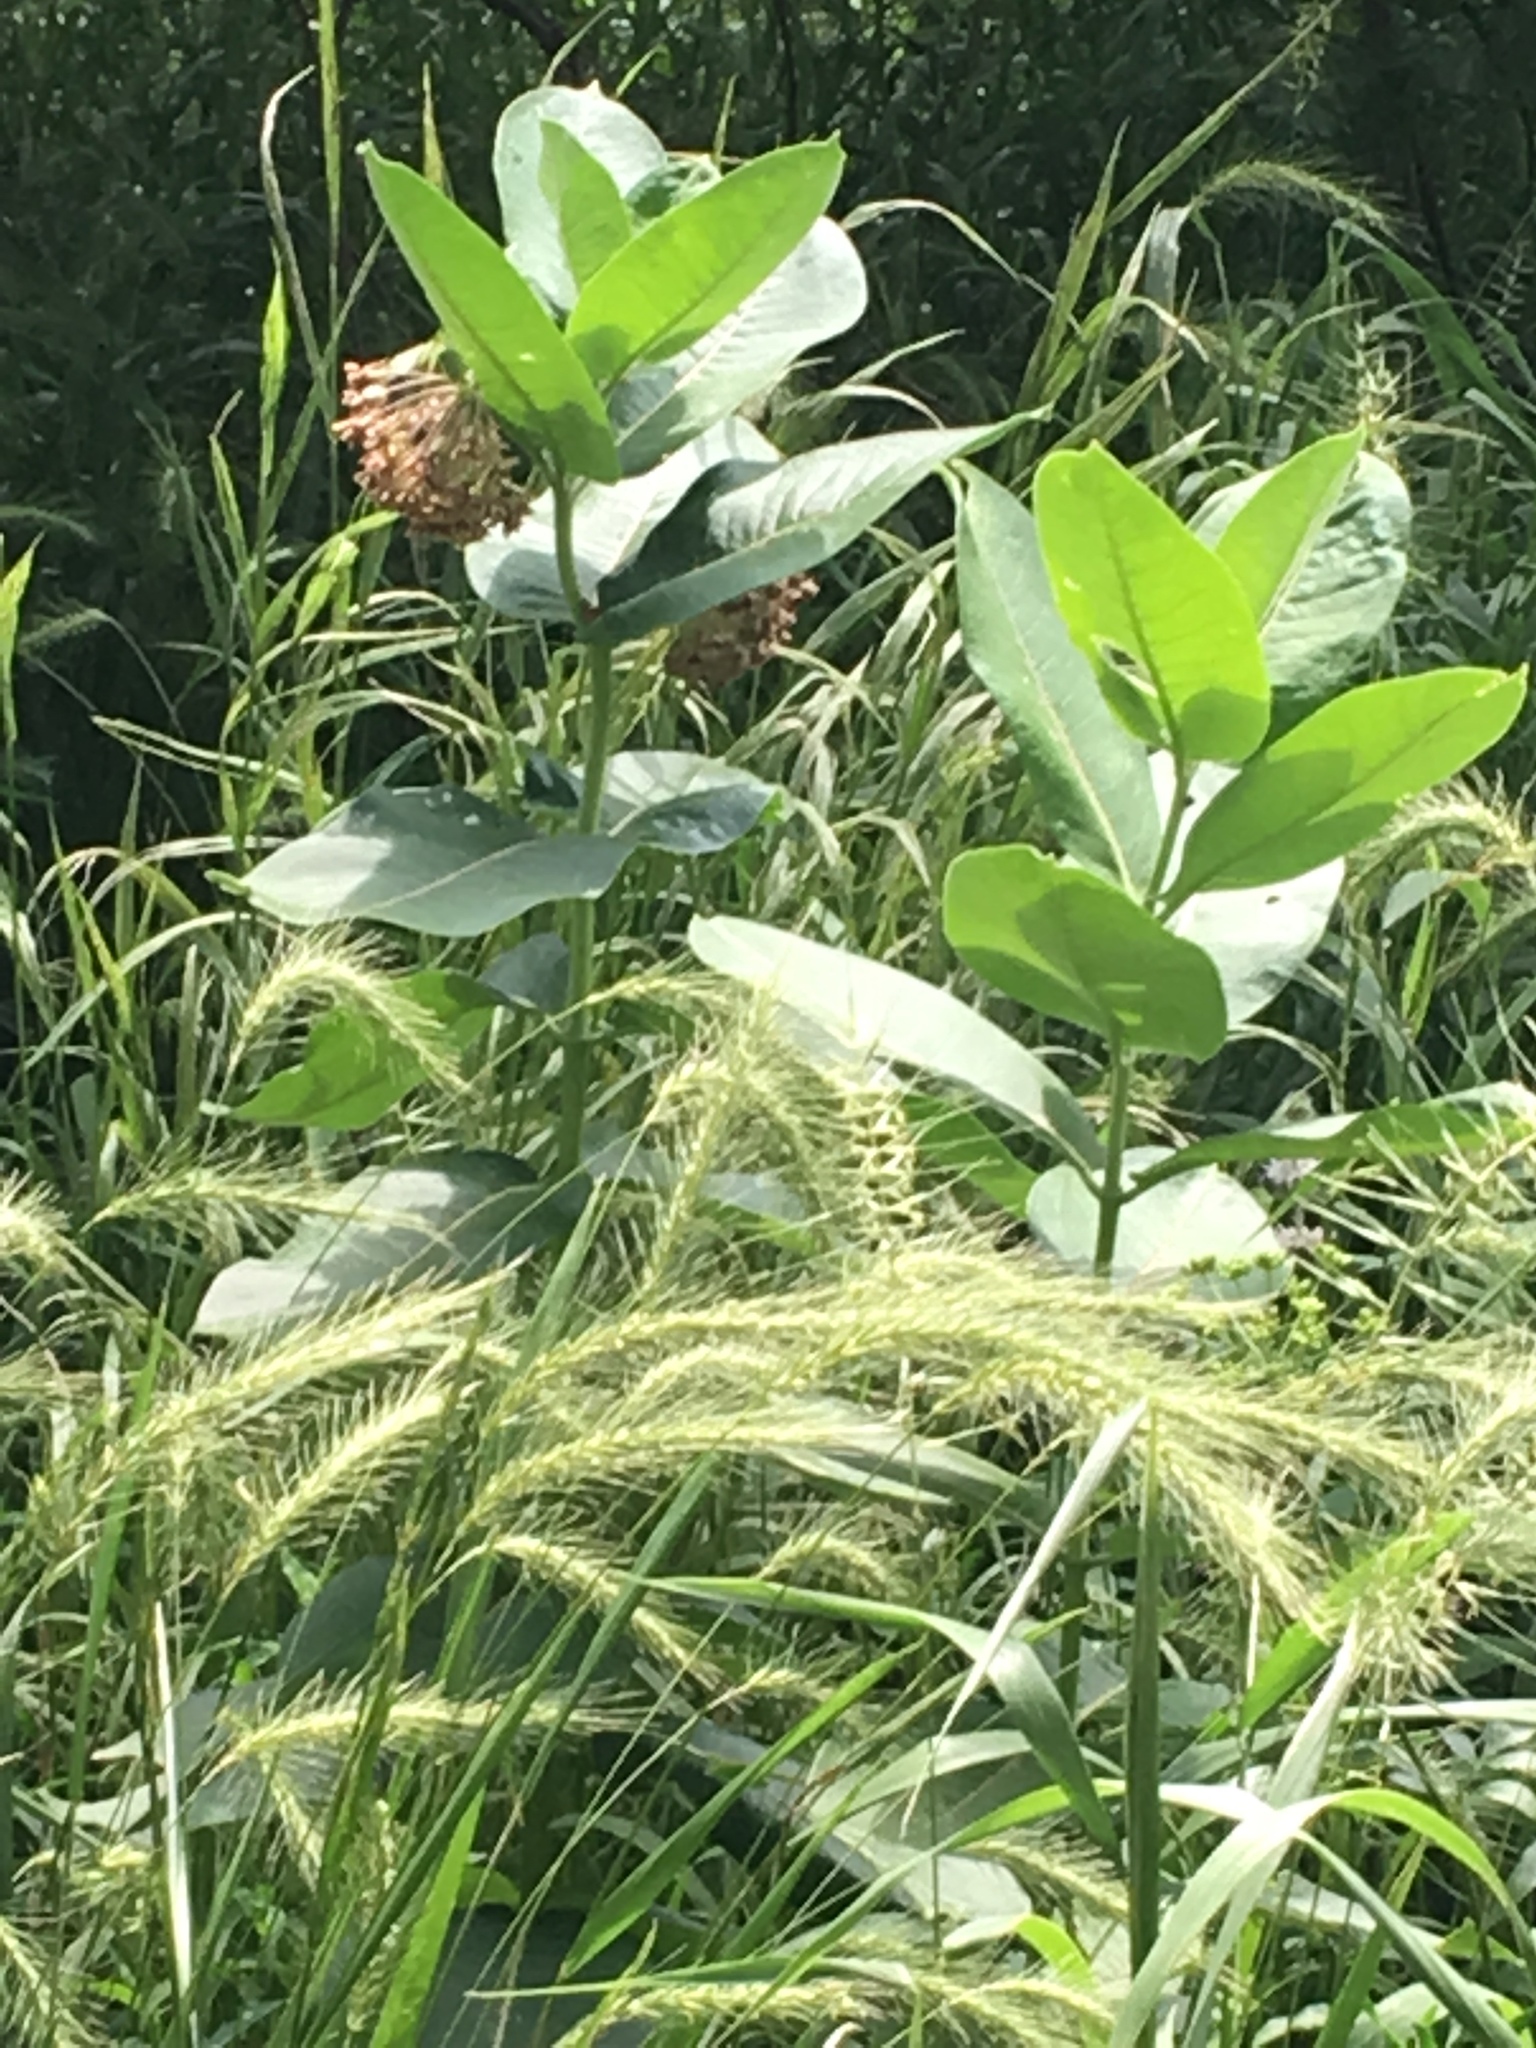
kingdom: Plantae
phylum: Tracheophyta
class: Magnoliopsida
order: Gentianales
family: Apocynaceae
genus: Asclepias
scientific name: Asclepias syriaca
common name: Common milkweed
